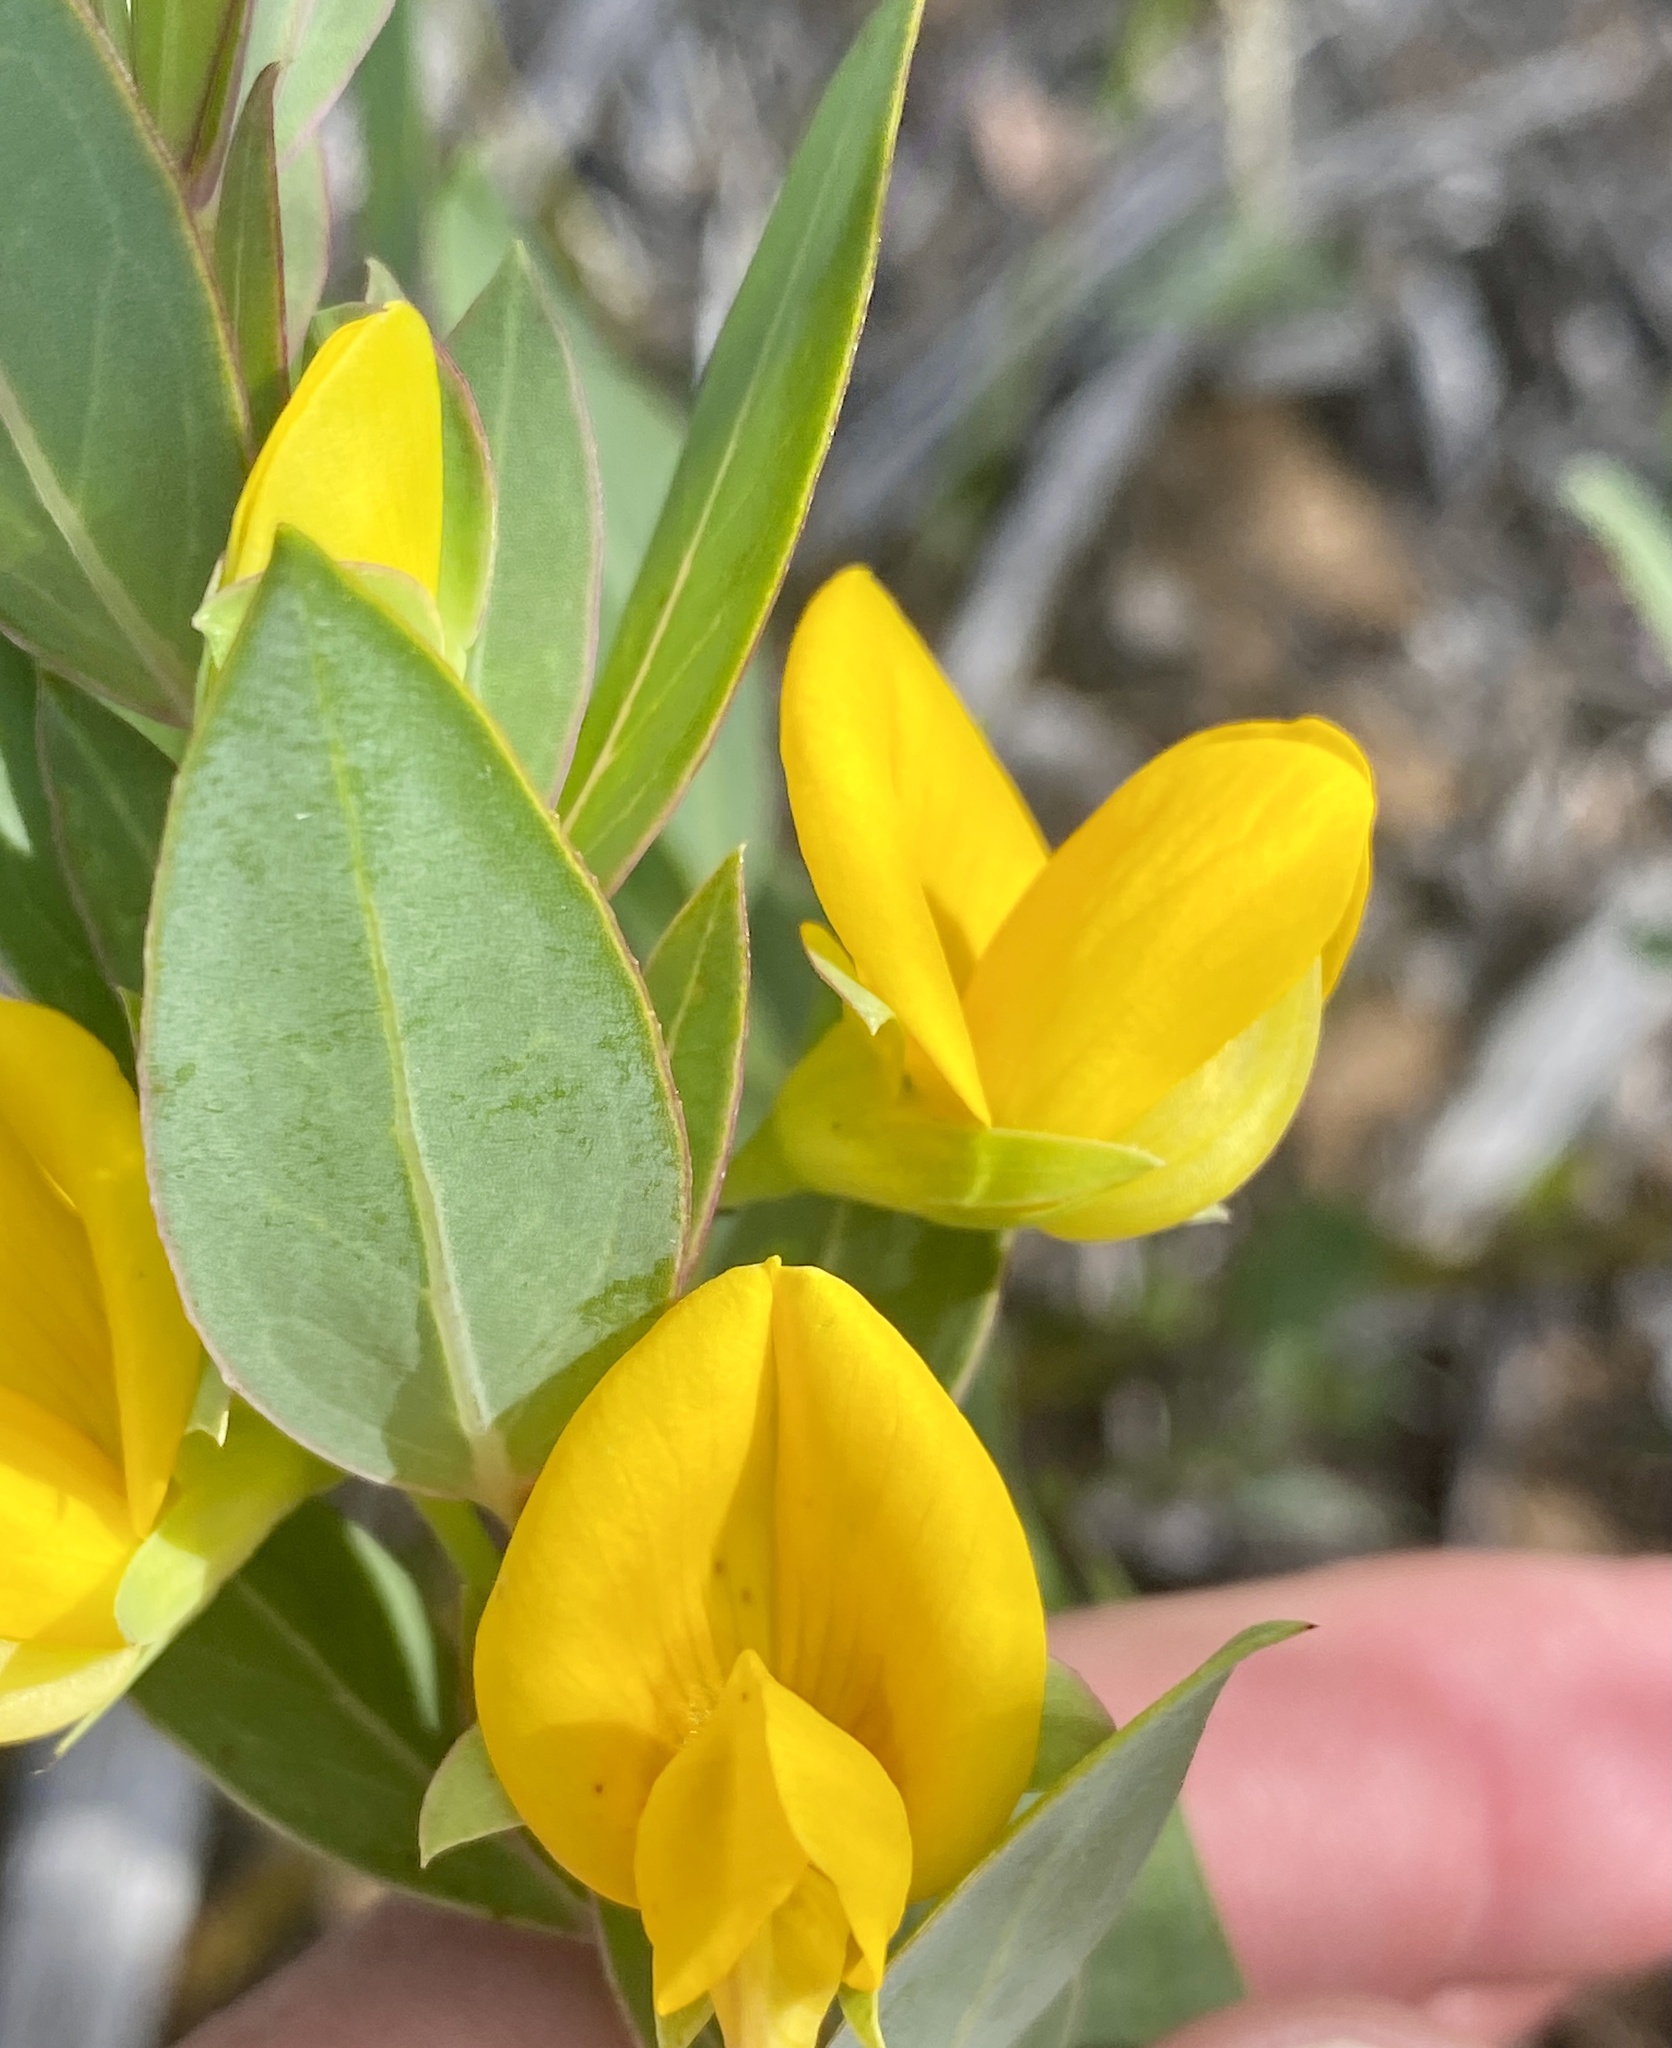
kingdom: Plantae
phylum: Tracheophyta
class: Magnoliopsida
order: Fabales
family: Fabaceae
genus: Rafnia
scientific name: Rafnia capensis
